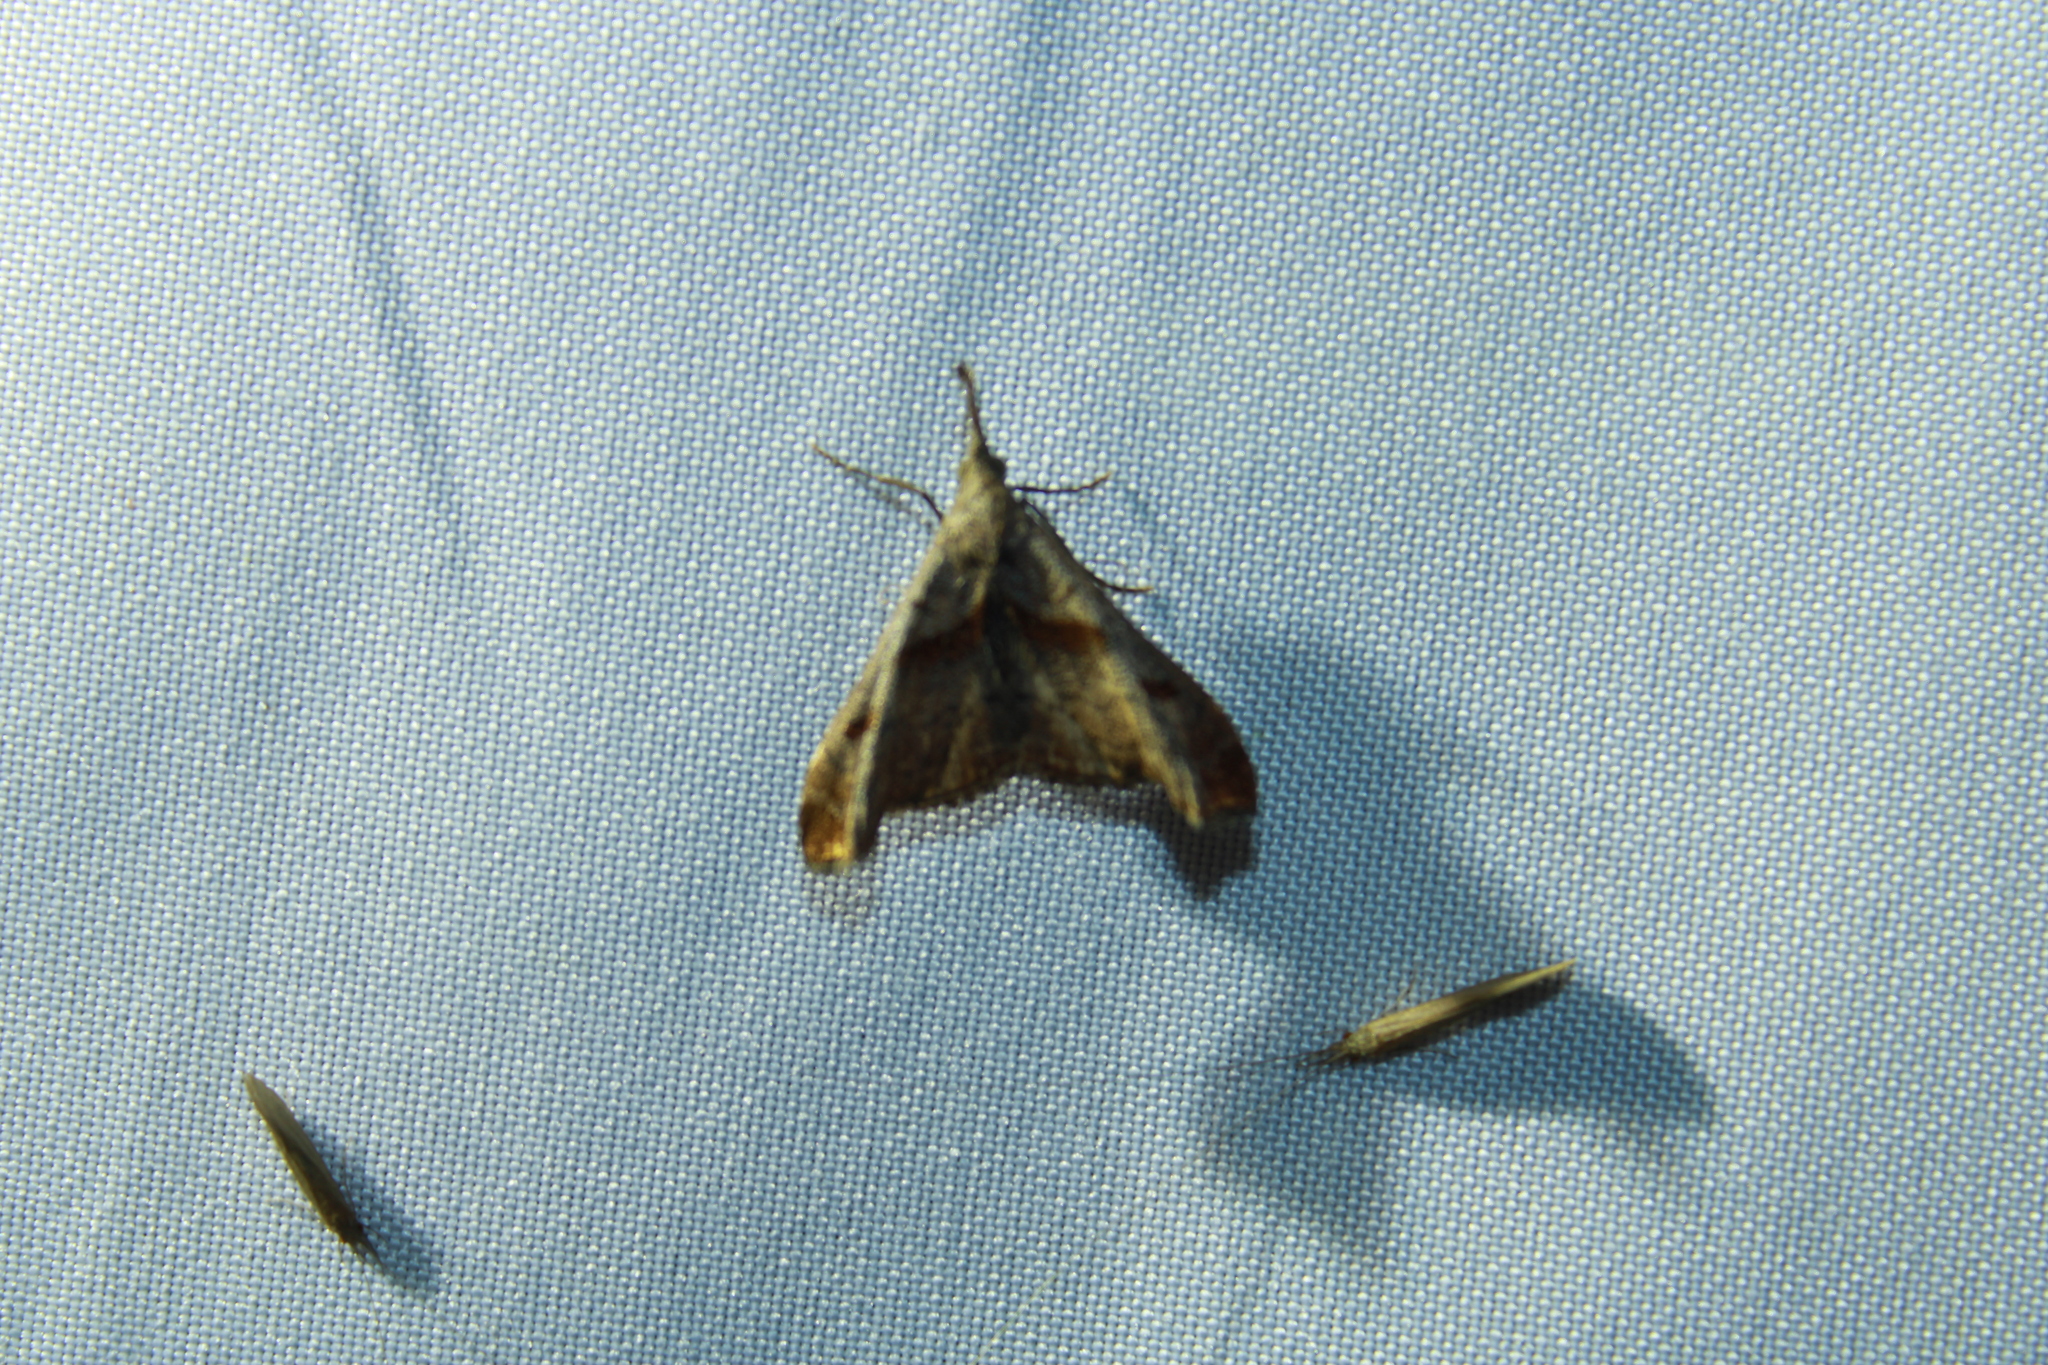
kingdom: Animalia
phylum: Arthropoda
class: Insecta
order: Lepidoptera
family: Erebidae
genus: Palthis
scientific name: Palthis angulalis
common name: Dark-spotted palthis moth
